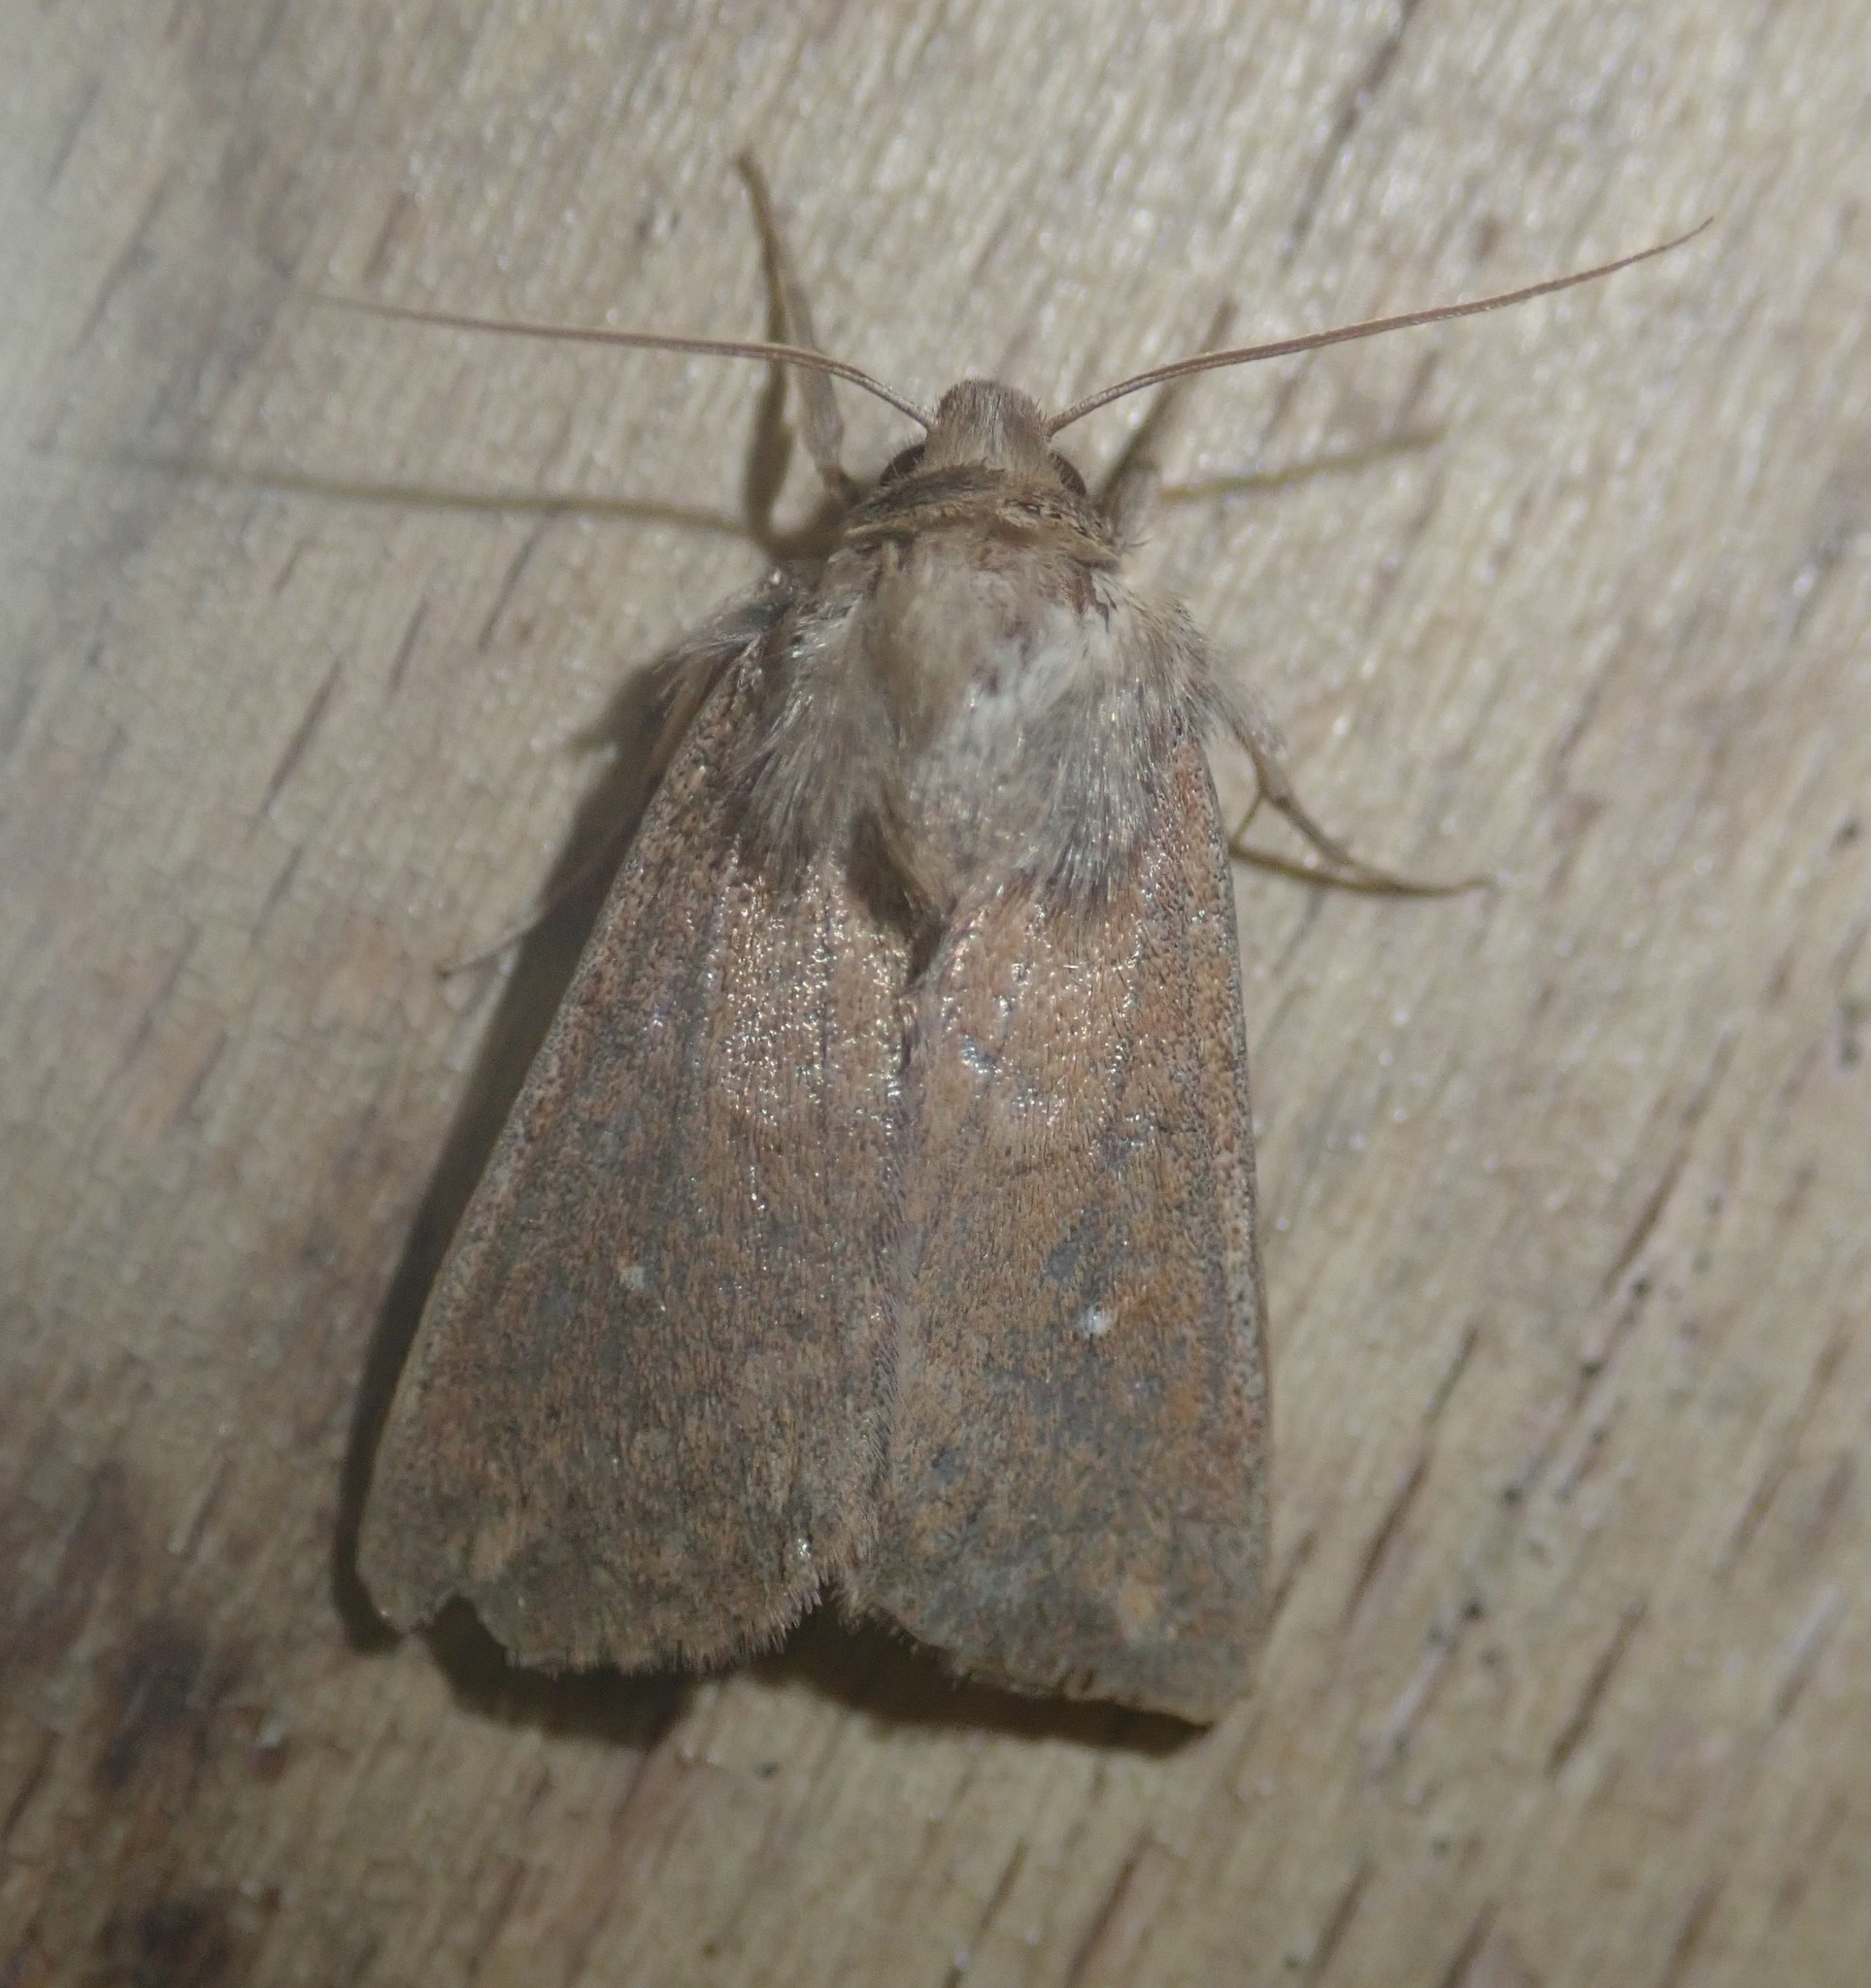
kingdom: Animalia
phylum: Arthropoda
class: Insecta
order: Lepidoptera
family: Noctuidae
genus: Mythimna
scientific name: Mythimna albipuncta
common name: White-point
